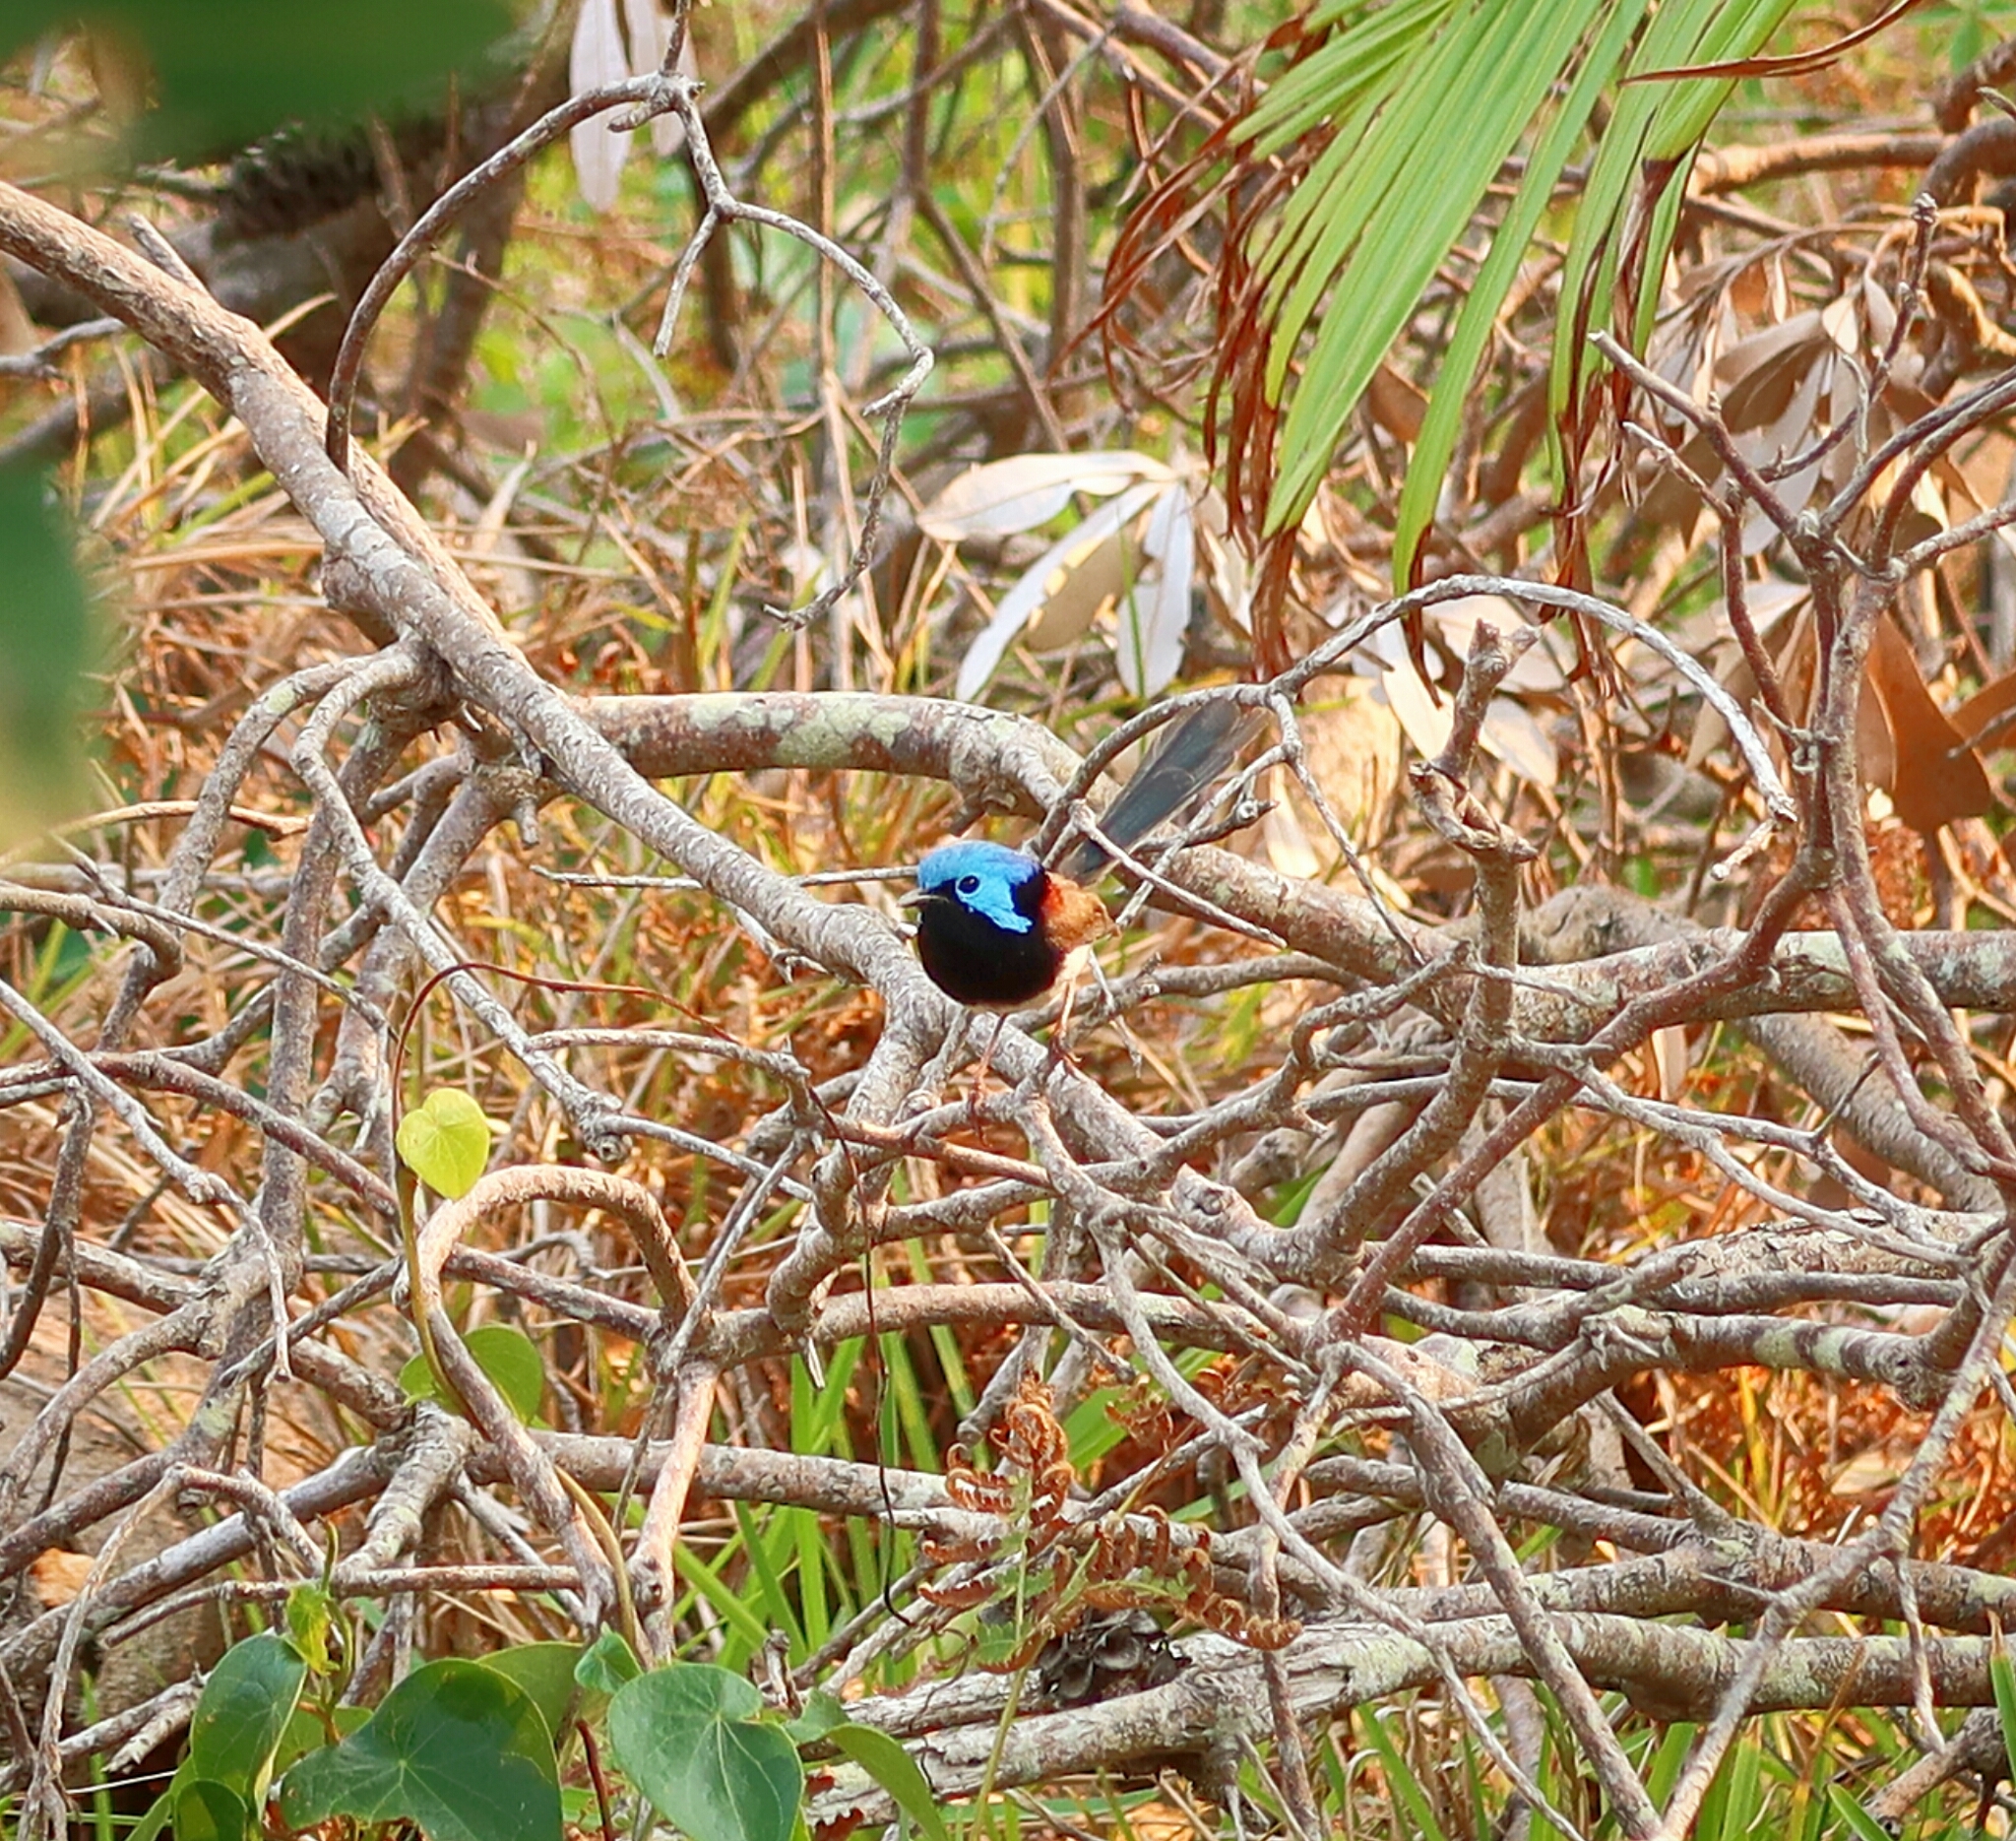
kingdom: Animalia
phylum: Chordata
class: Aves
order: Passeriformes
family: Maluridae
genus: Malurus
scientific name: Malurus lamberti
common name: Variegated fairywren
